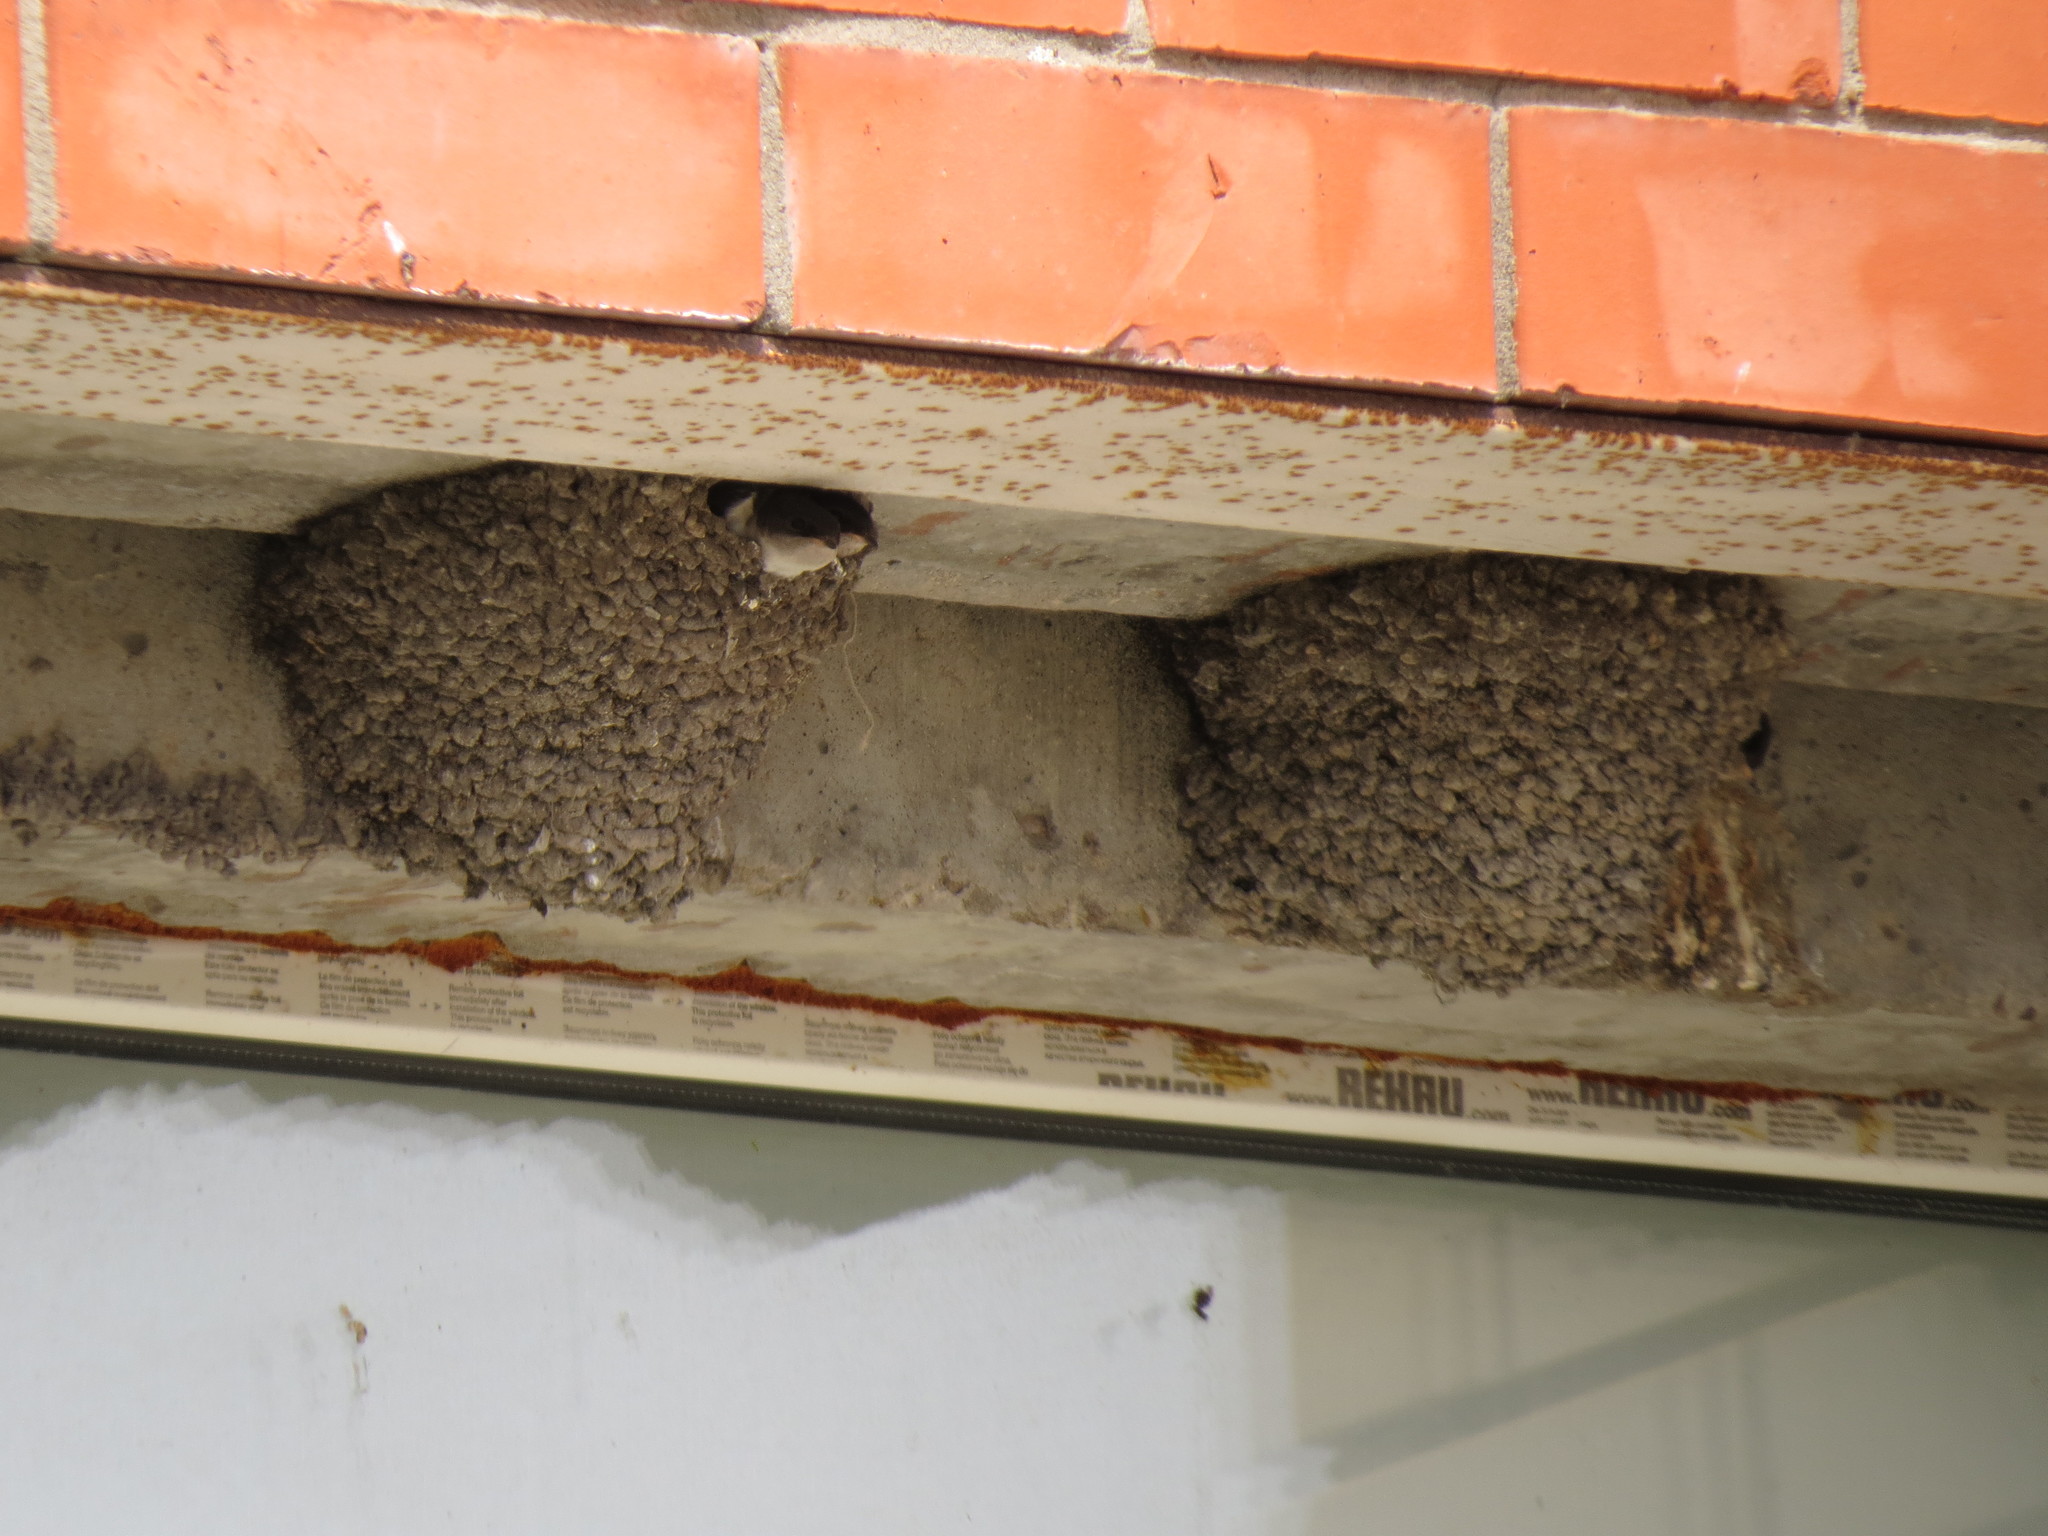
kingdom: Animalia
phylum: Chordata
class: Aves
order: Passeriformes
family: Hirundinidae
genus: Delichon
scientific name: Delichon urbicum
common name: Common house martin
